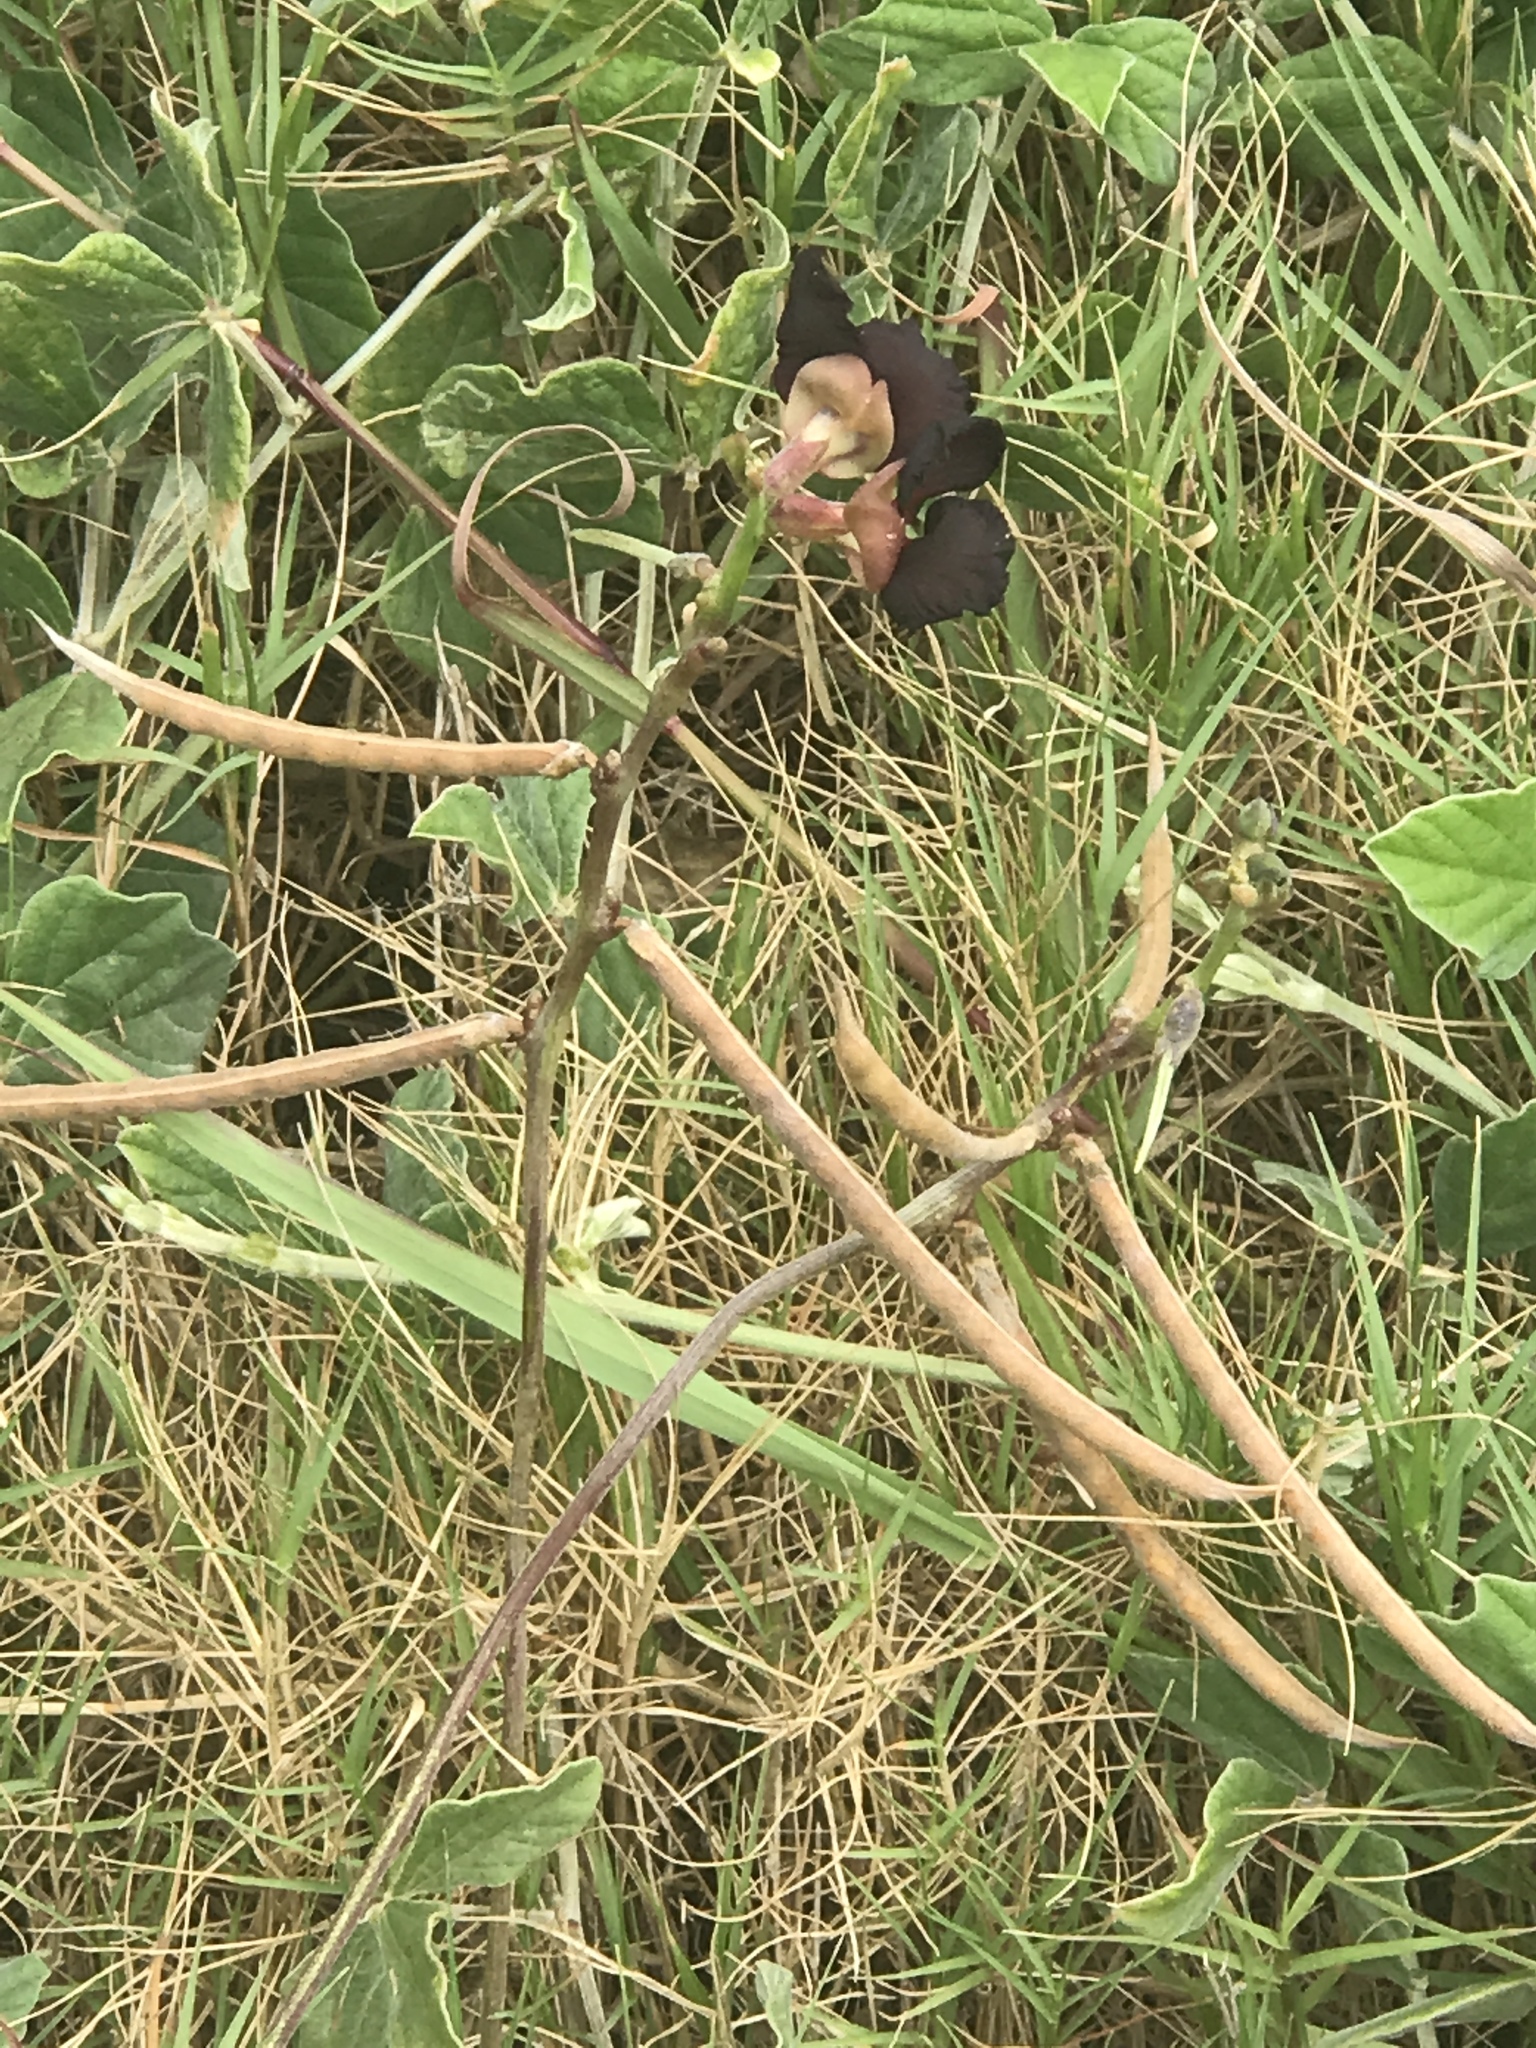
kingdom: Plantae
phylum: Tracheophyta
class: Magnoliopsida
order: Fabales
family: Fabaceae
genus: Macroptilium
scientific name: Macroptilium atropurpureum
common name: Purple bushbean
